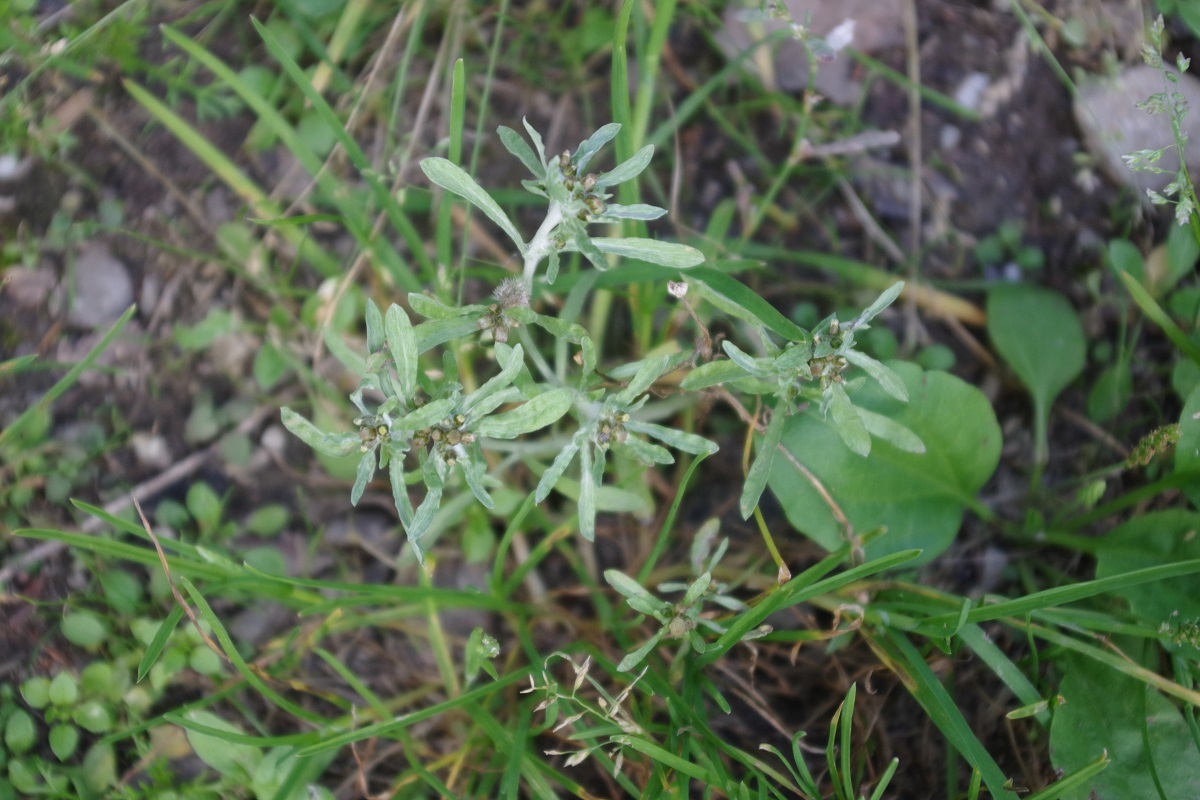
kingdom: Plantae
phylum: Tracheophyta
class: Magnoliopsida
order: Asterales
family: Asteraceae
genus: Gnaphalium
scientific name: Gnaphalium uliginosum
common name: Marsh cudweed
